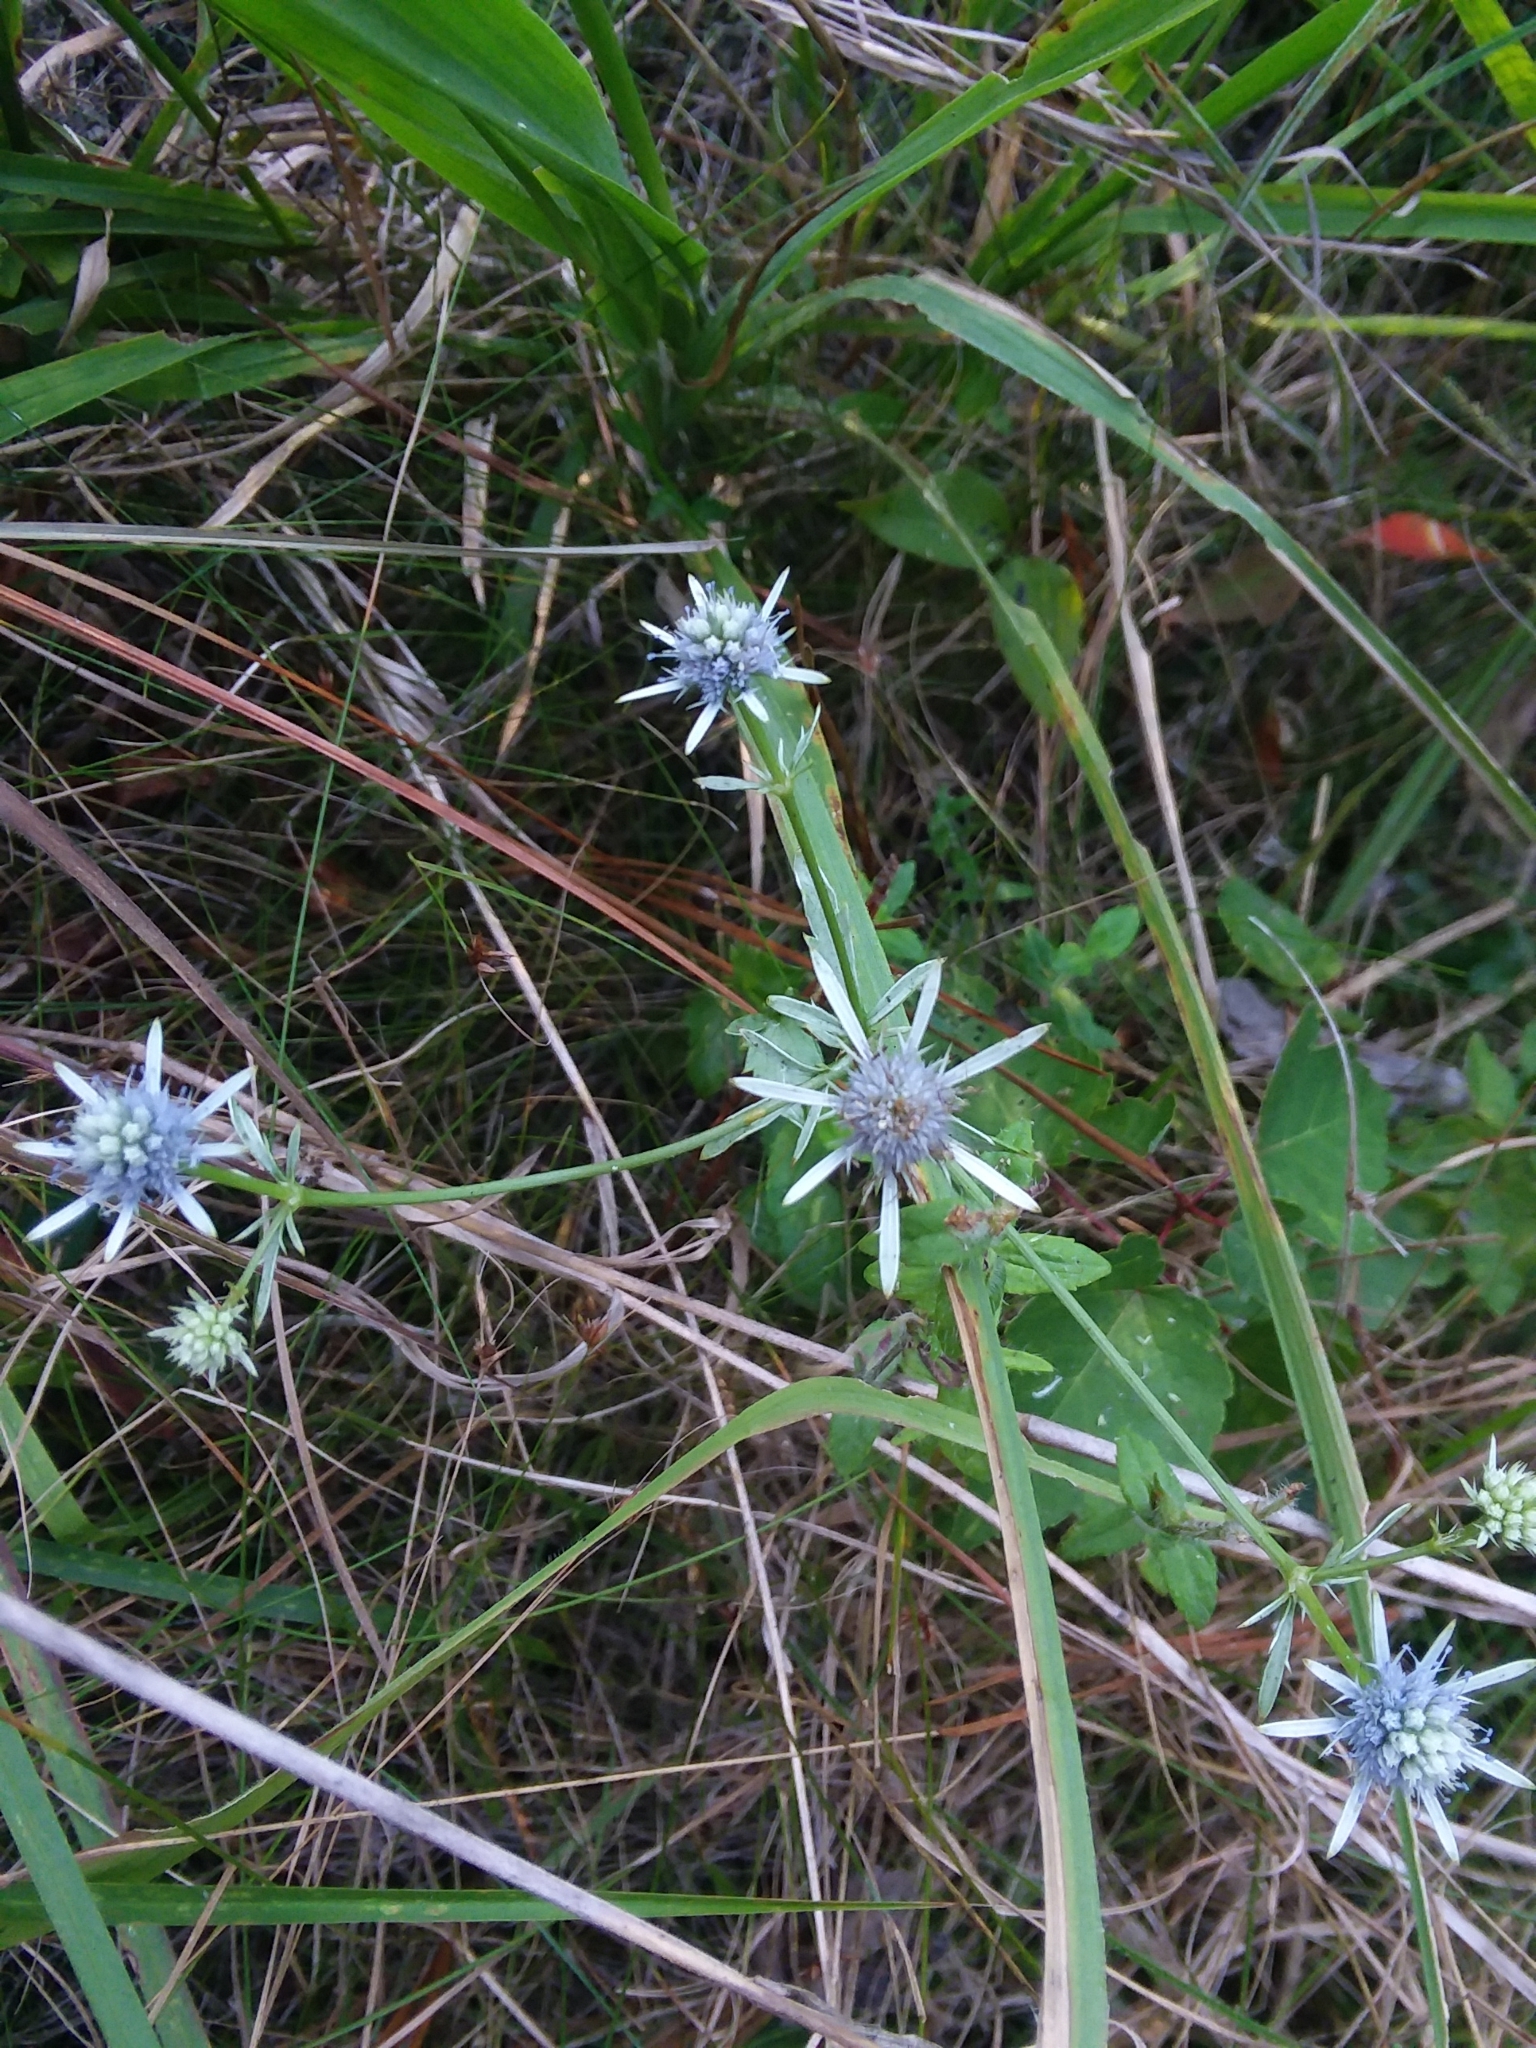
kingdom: Plantae
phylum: Tracheophyta
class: Magnoliopsida
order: Apiales
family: Apiaceae
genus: Eryngium
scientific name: Eryngium integrifolium
